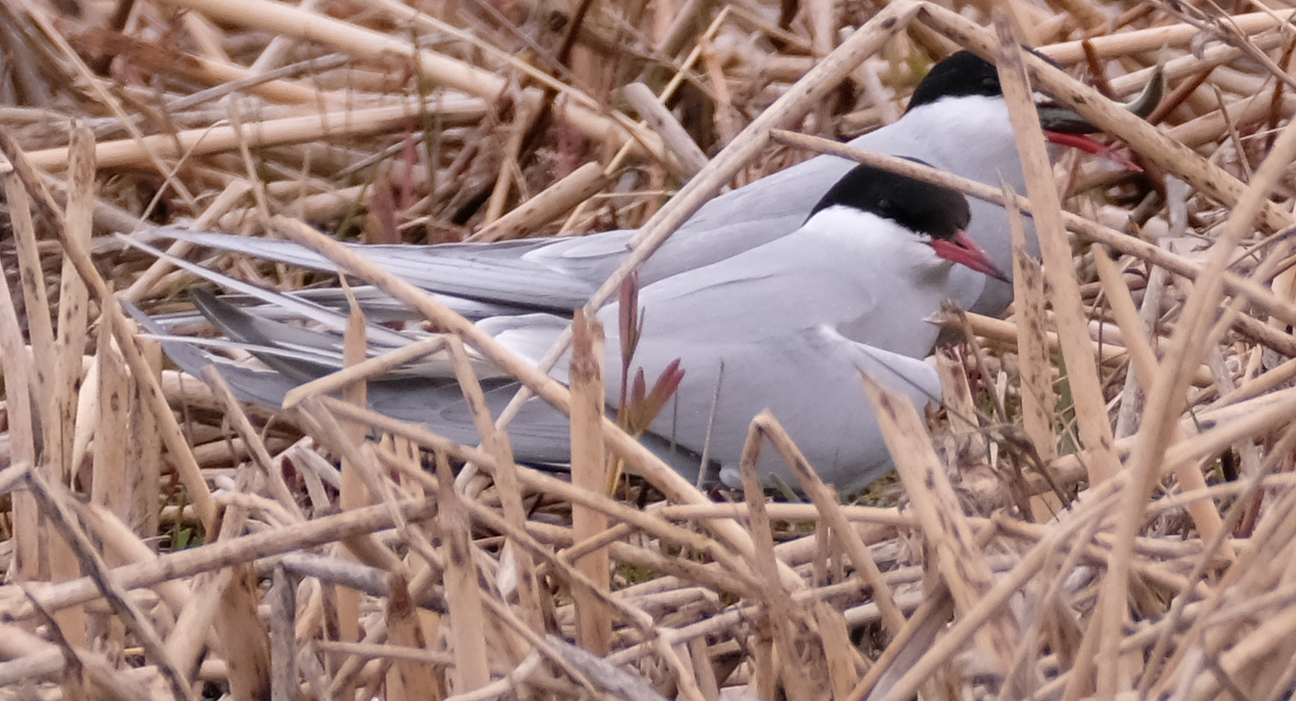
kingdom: Animalia
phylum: Chordata
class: Aves
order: Charadriiformes
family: Laridae
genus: Sterna
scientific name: Sterna paradisaea
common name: Arctic tern
